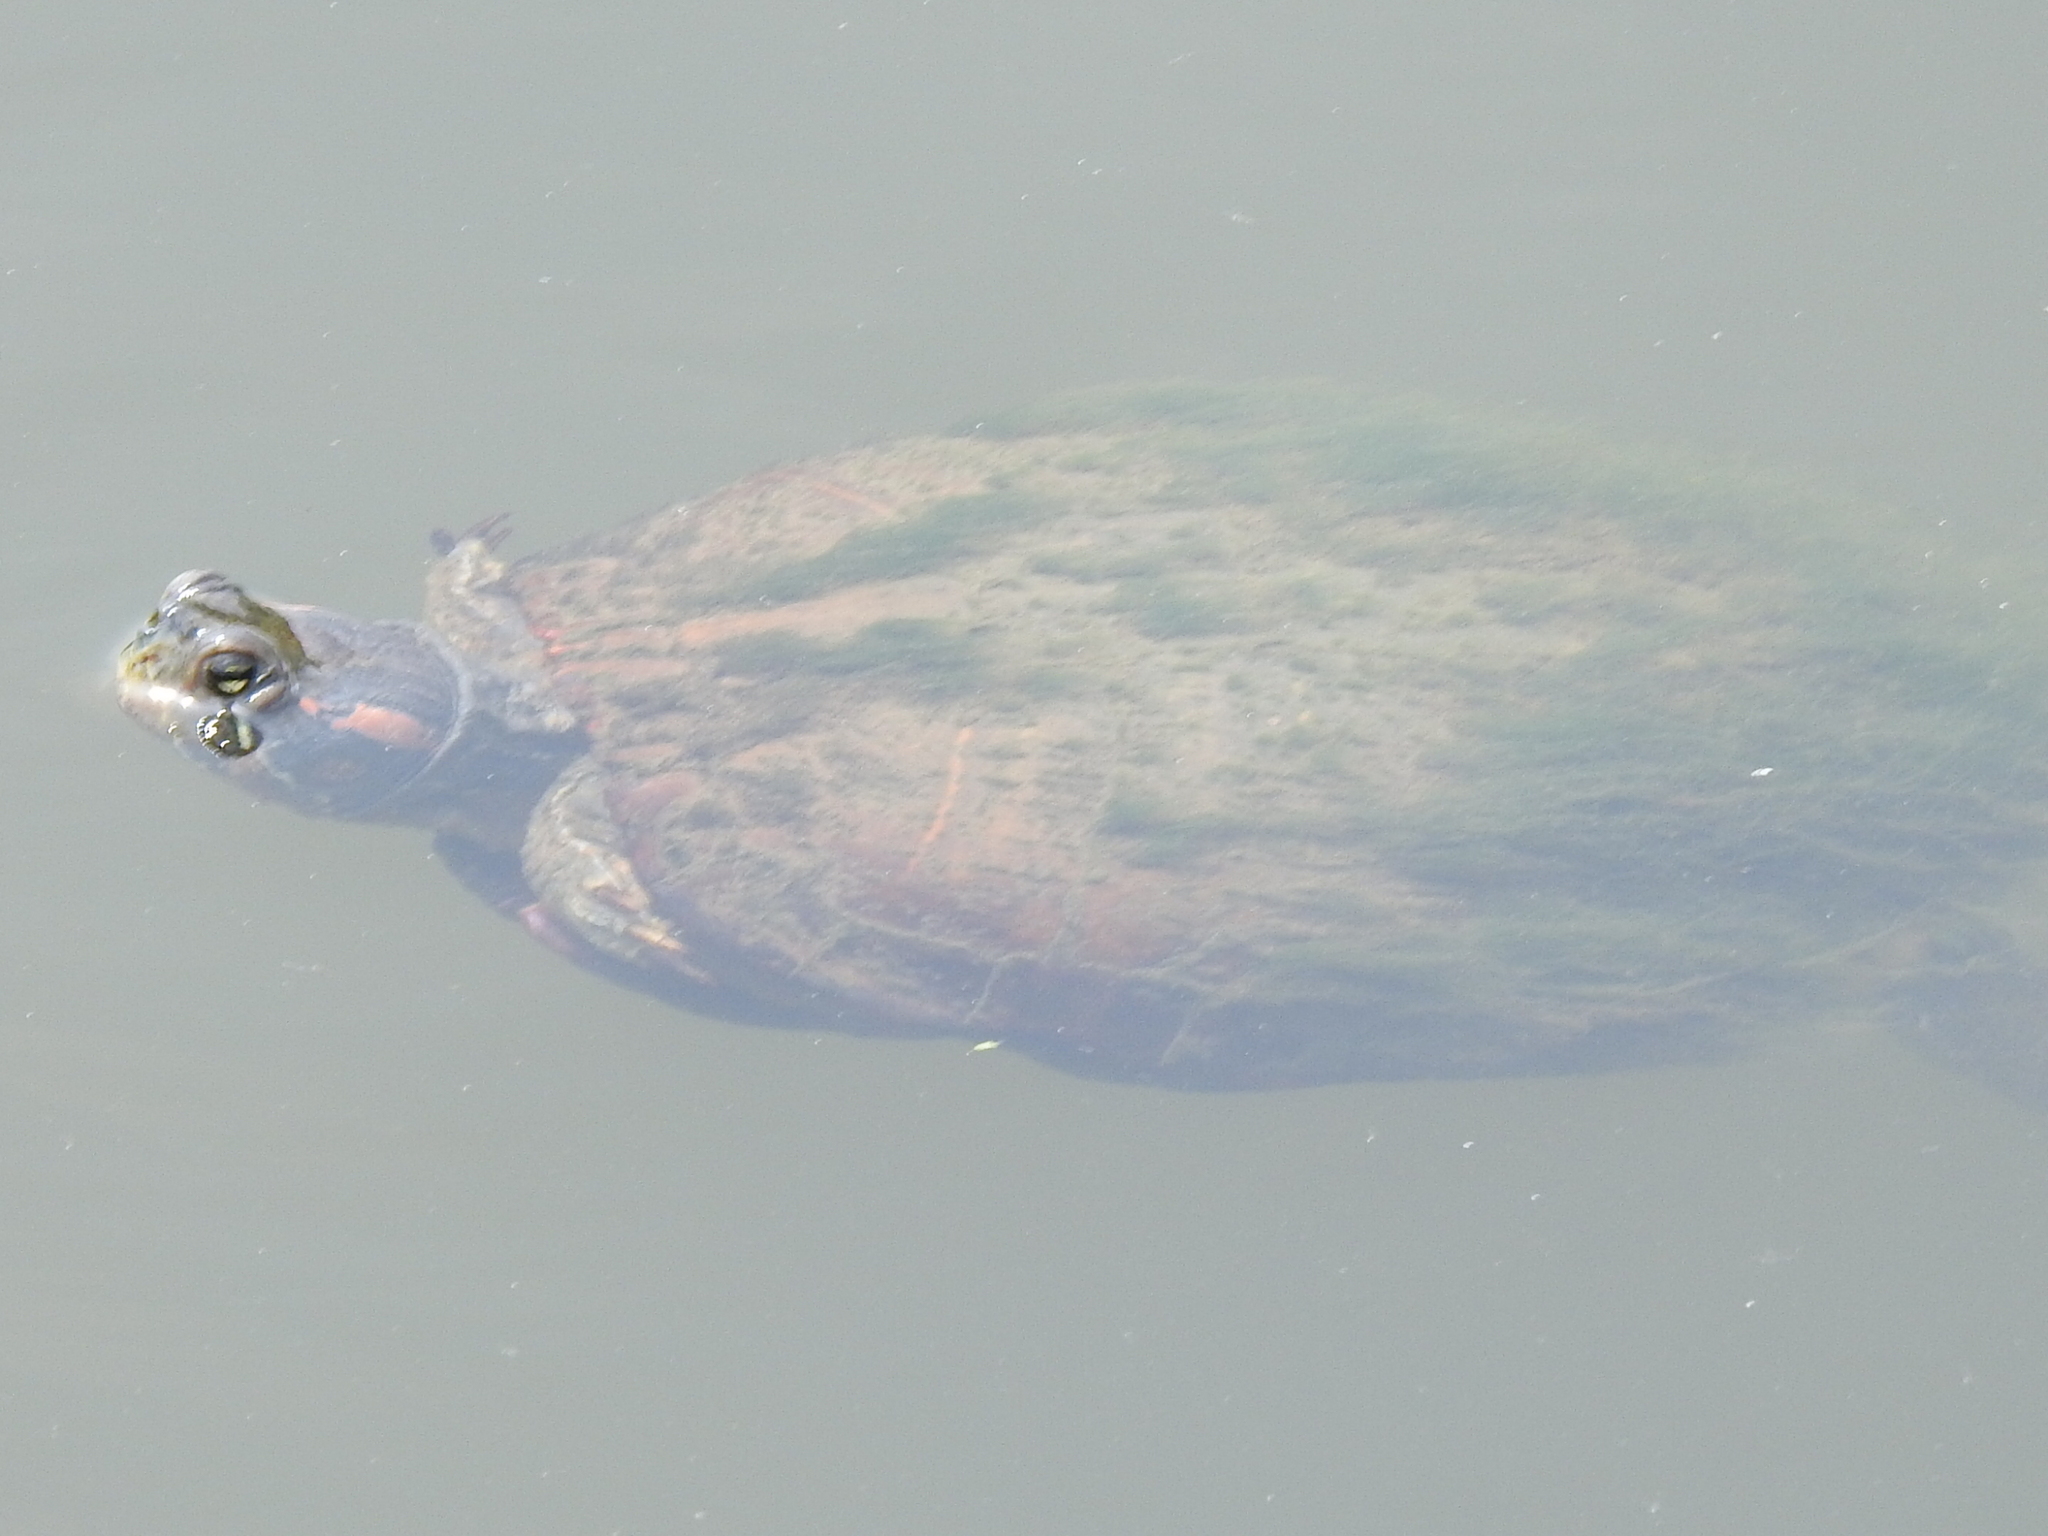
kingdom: Animalia
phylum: Chordata
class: Testudines
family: Emydidae
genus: Trachemys
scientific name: Trachemys scripta
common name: Slider
